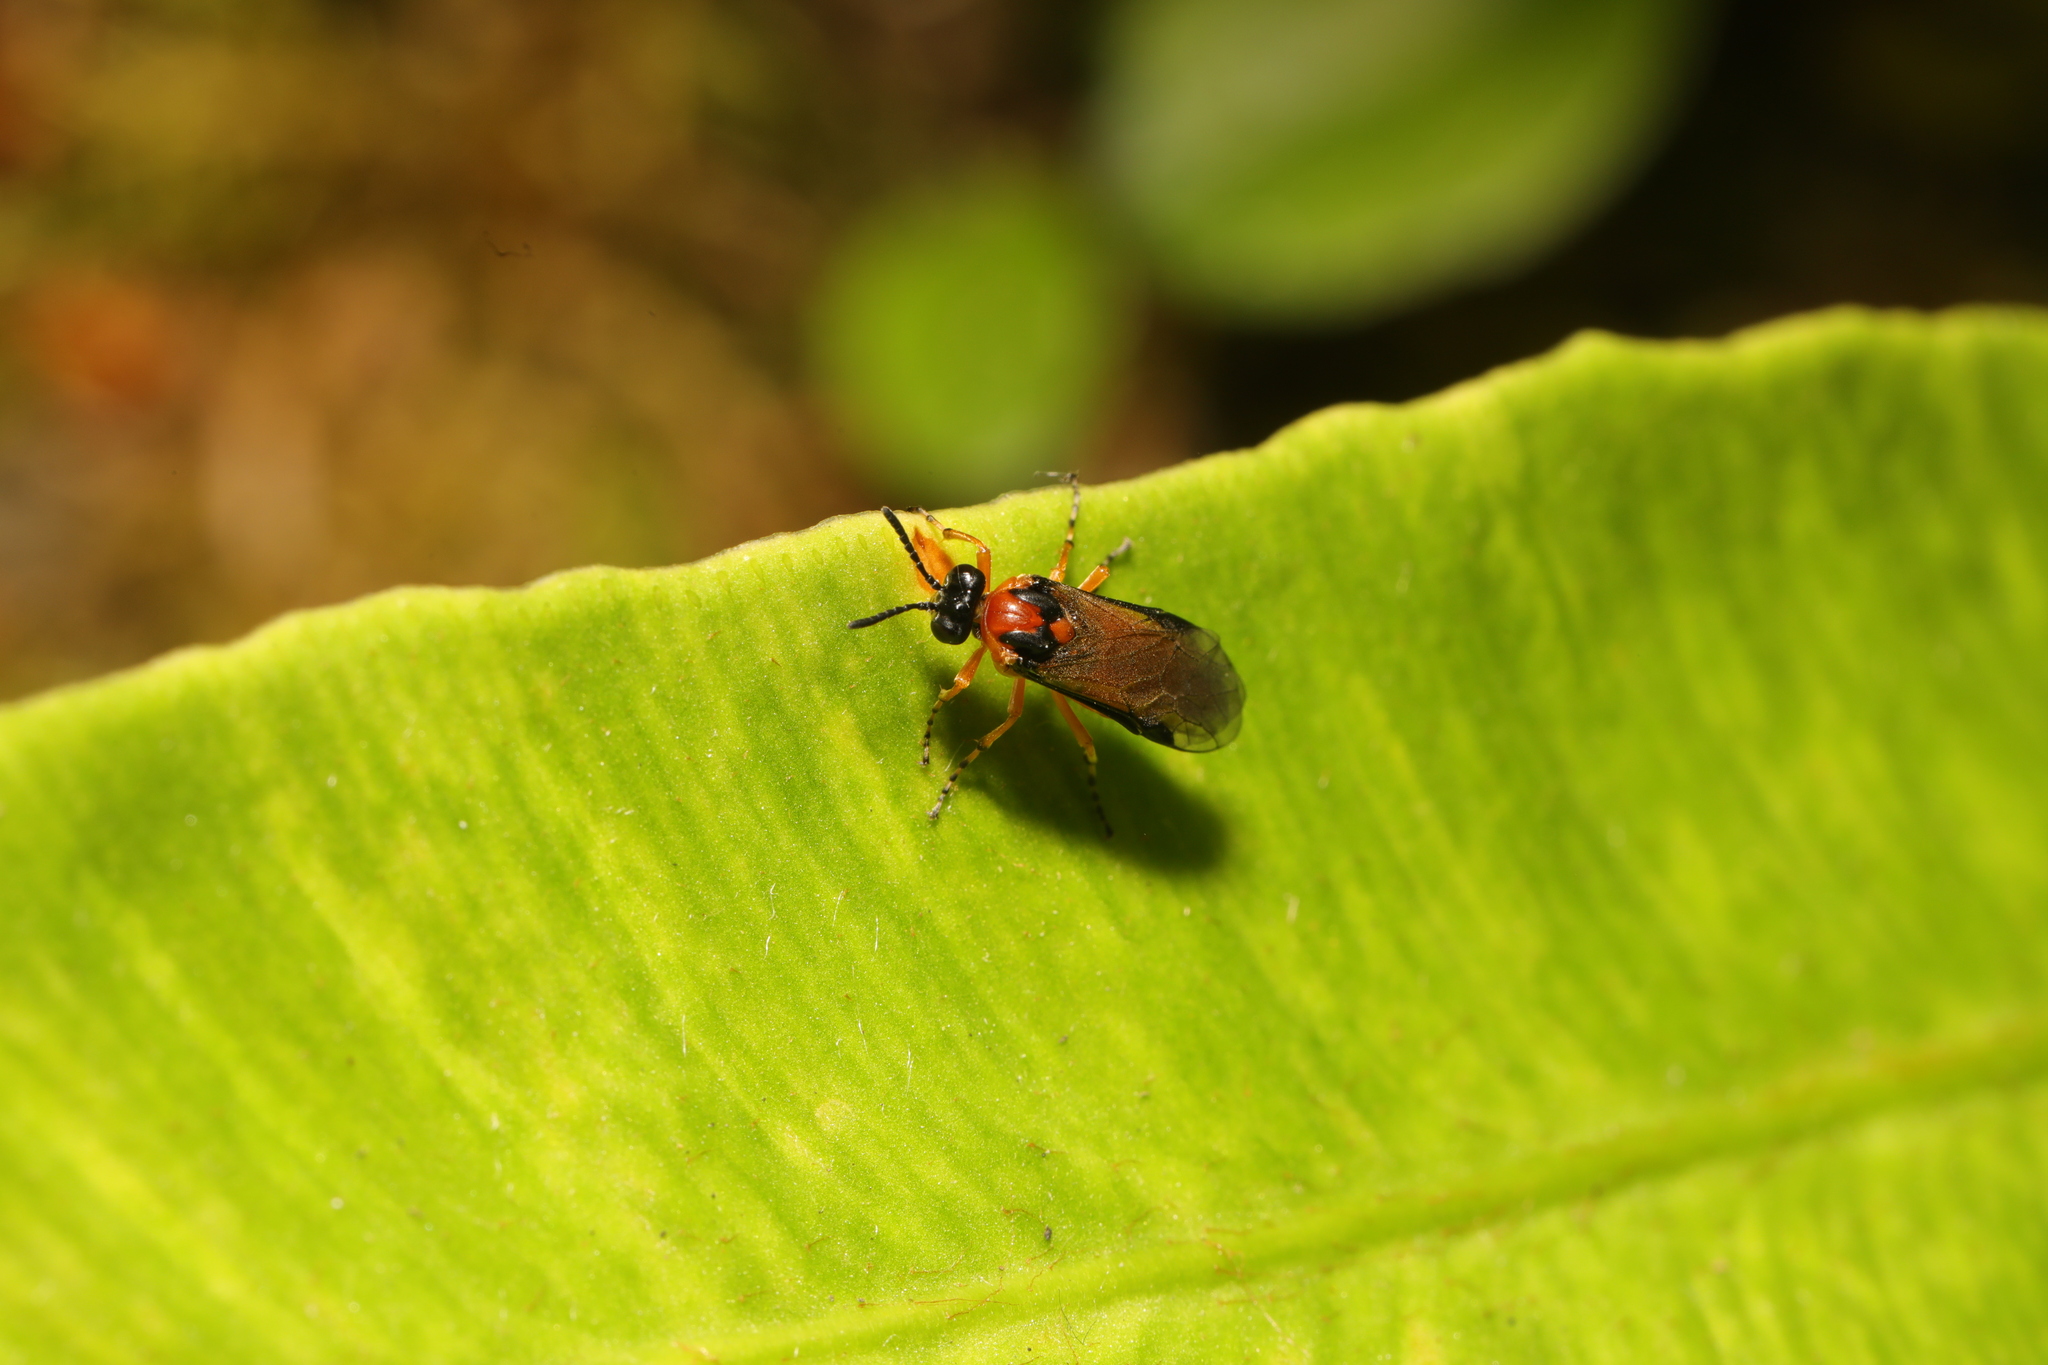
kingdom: Animalia
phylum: Arthropoda
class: Insecta
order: Hymenoptera
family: Tenthredinidae
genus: Athalia
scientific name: Athalia rosae
